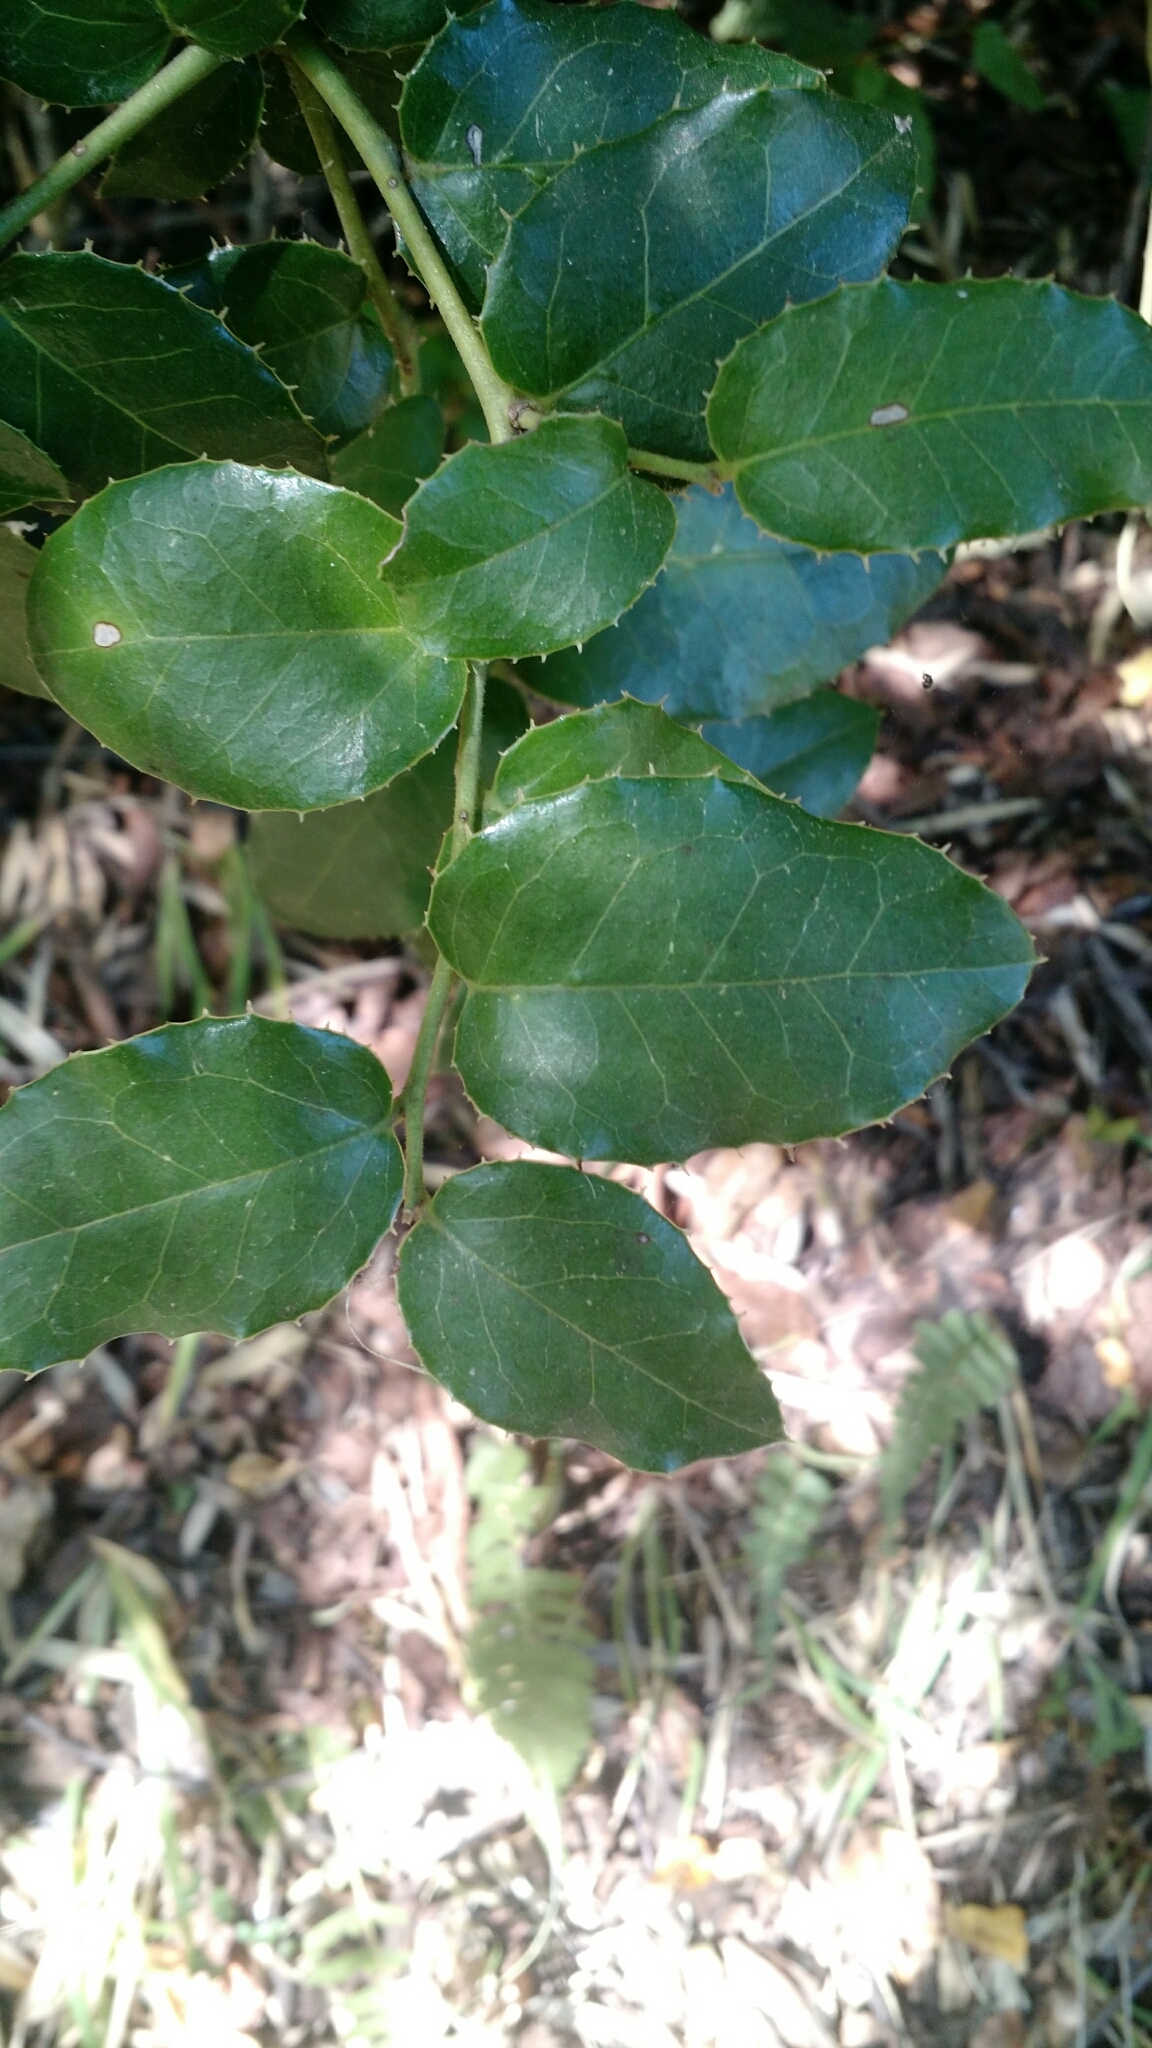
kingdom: Plantae
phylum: Tracheophyta
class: Magnoliopsida
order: Cardiopteridales
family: Cardiopteridaceae
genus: Citronella
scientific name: Citronella mucronata
